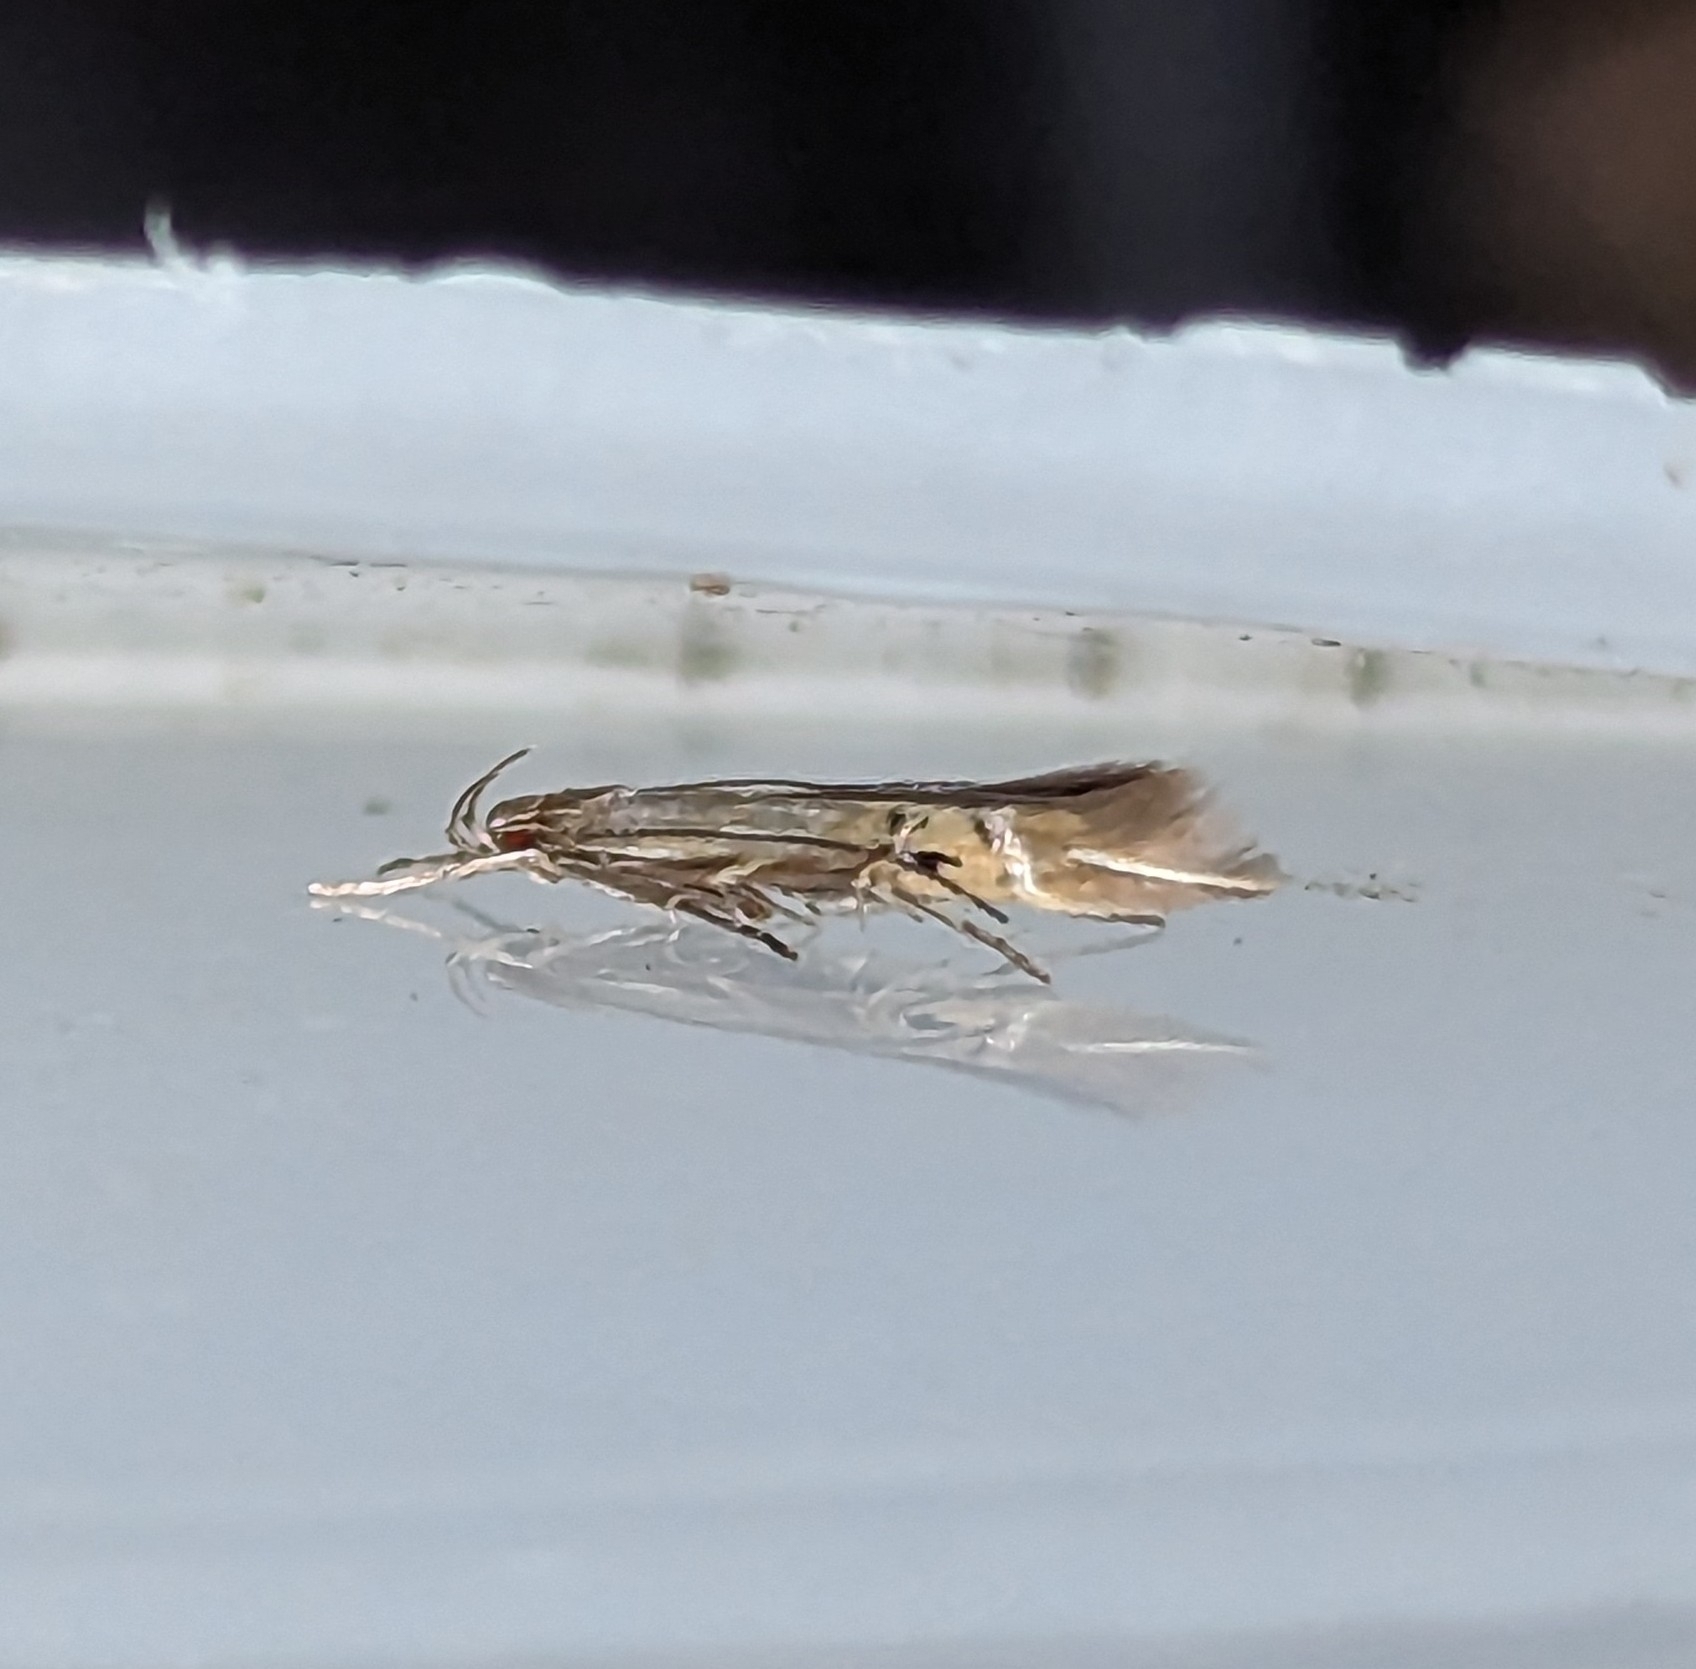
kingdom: Animalia
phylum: Arthropoda
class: Insecta
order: Lepidoptera
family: Cosmopterigidae
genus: Cosmopterix
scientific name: Cosmopterix fernaldella
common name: Fernald's cosmopterix moth
